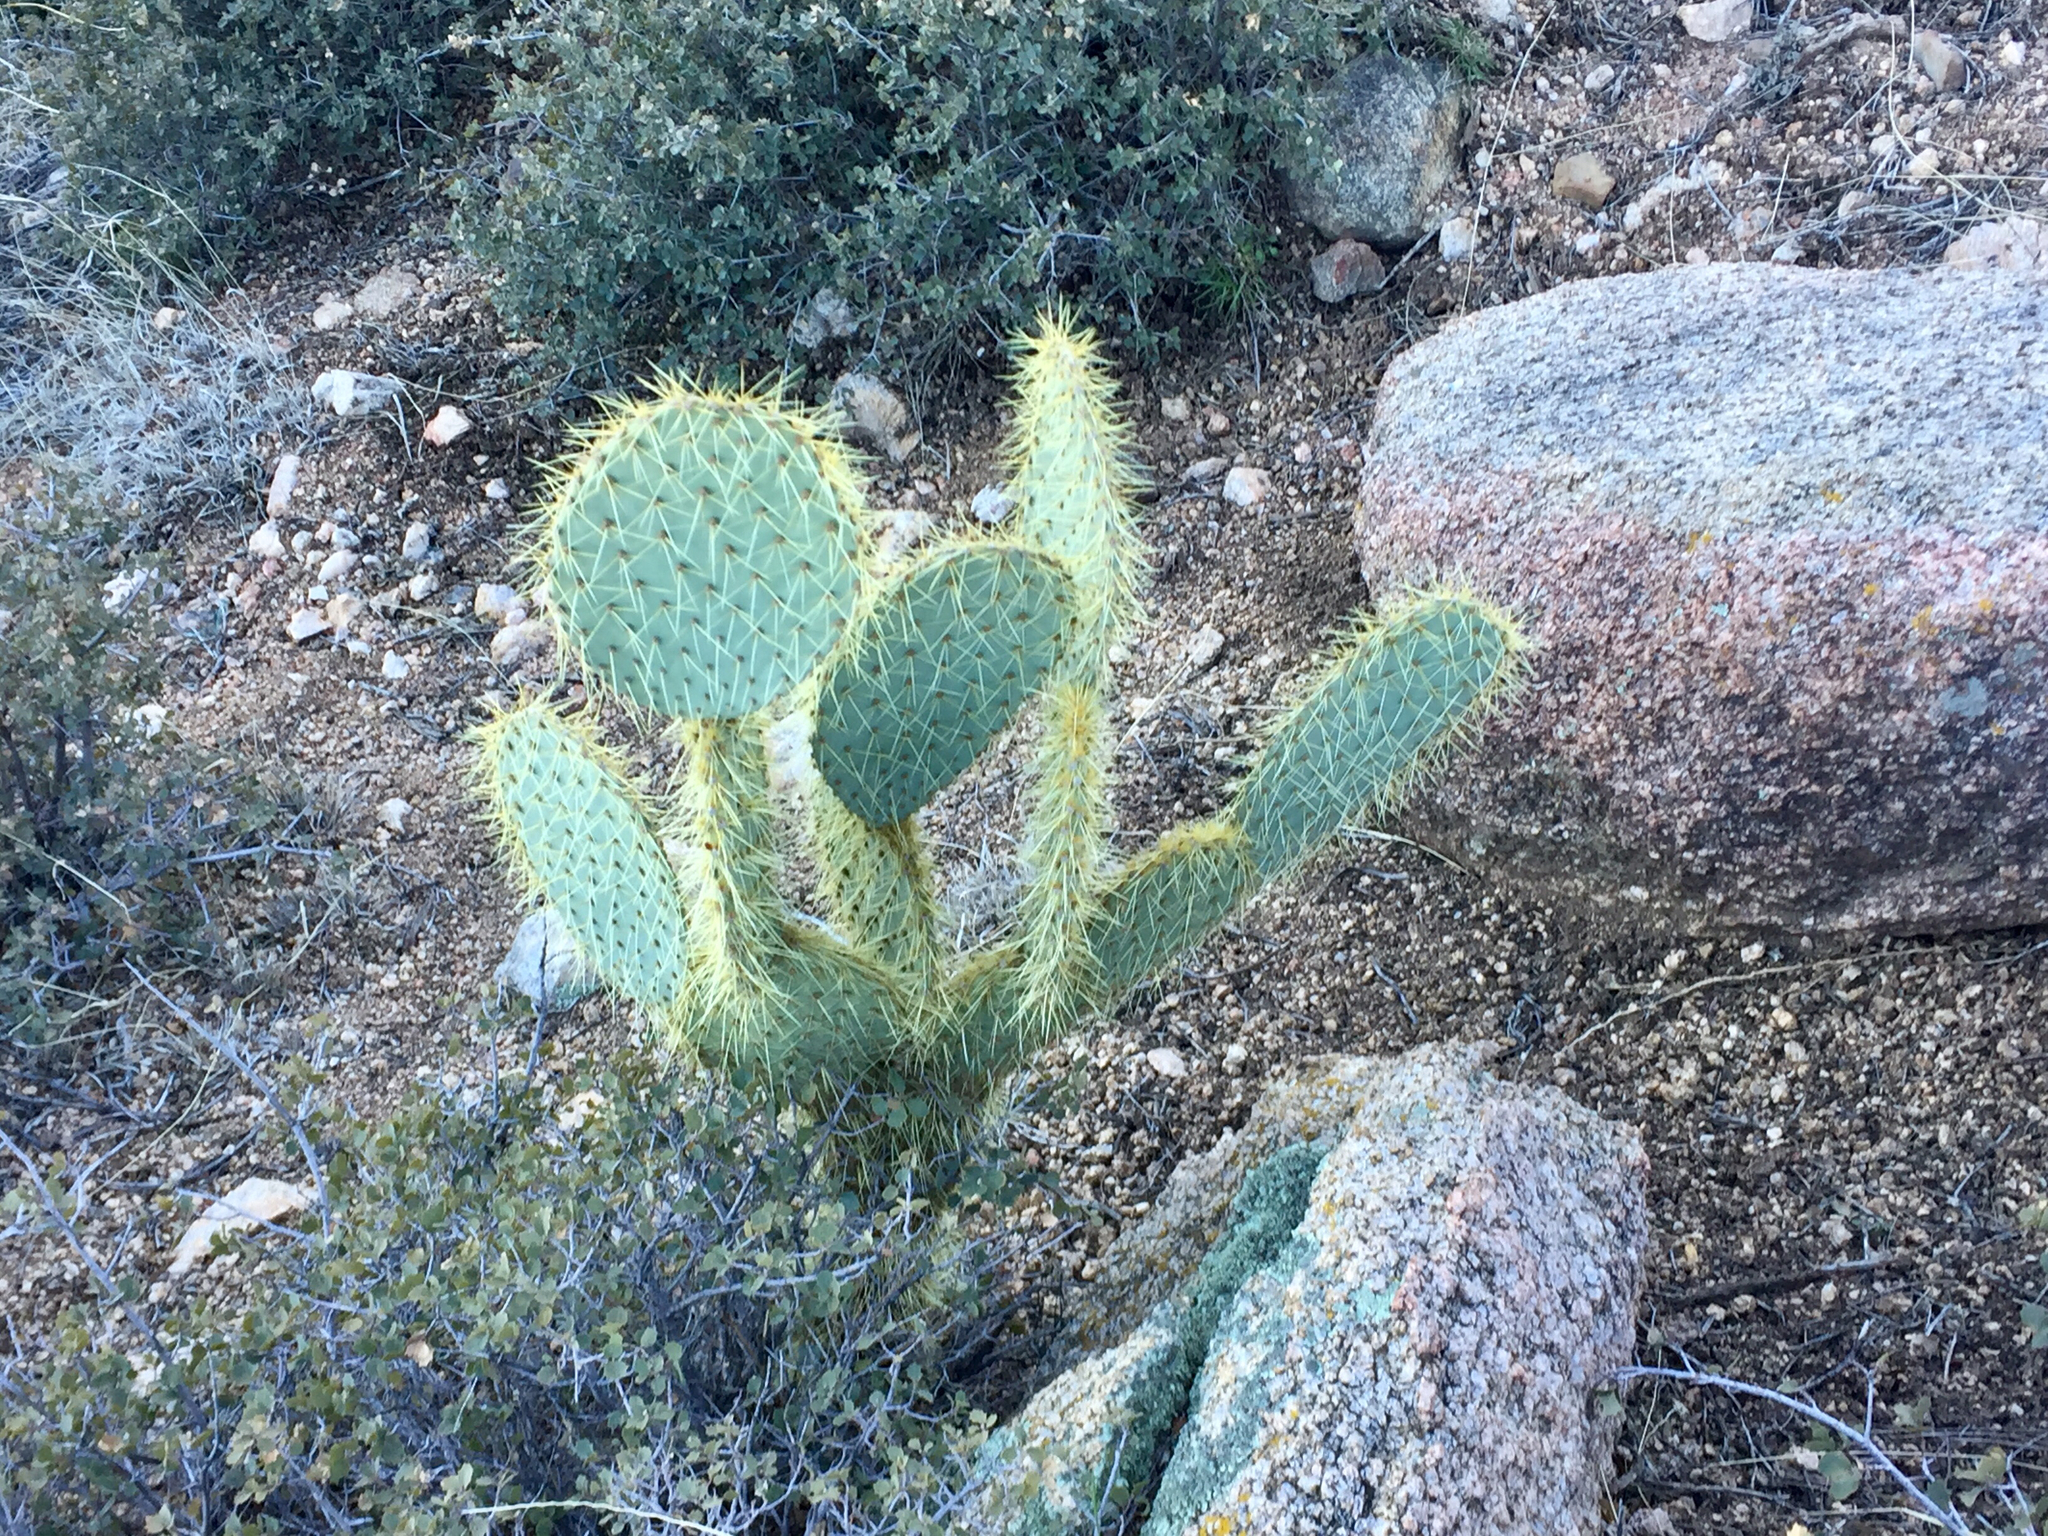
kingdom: Plantae
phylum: Tracheophyta
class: Magnoliopsida
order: Caryophyllales
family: Cactaceae
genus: Opuntia
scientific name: Opuntia chlorotica
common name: Dollar-joint prickly-pear
